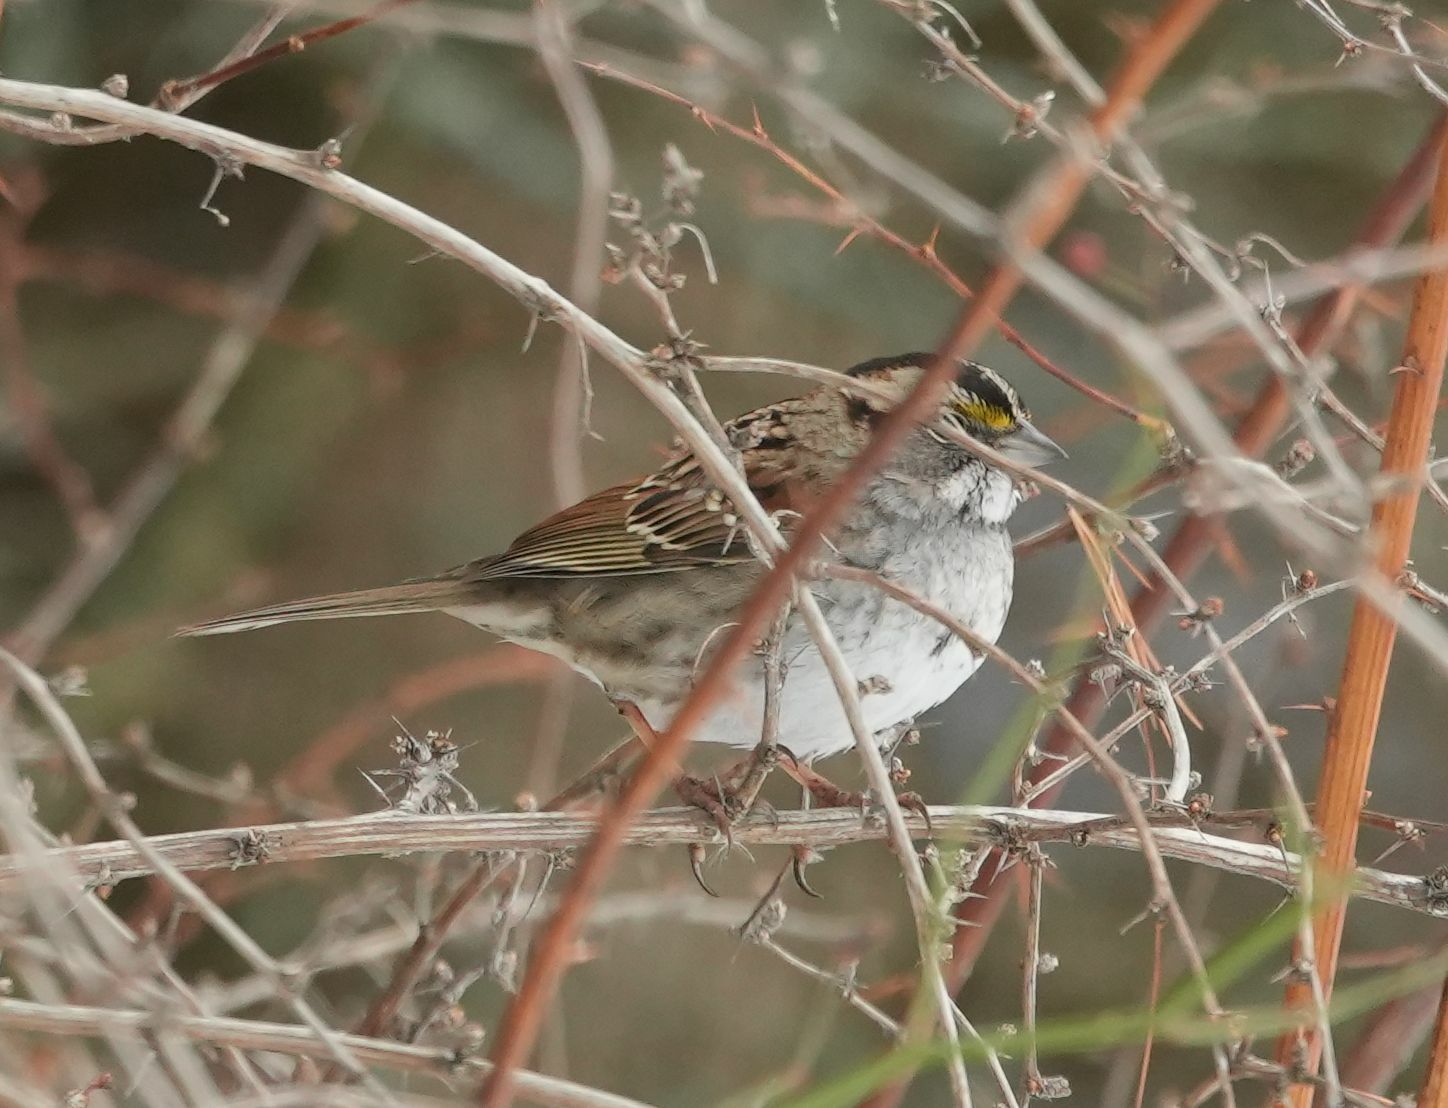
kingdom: Animalia
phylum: Chordata
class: Aves
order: Passeriformes
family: Passerellidae
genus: Zonotrichia
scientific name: Zonotrichia albicollis
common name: White-throated sparrow
